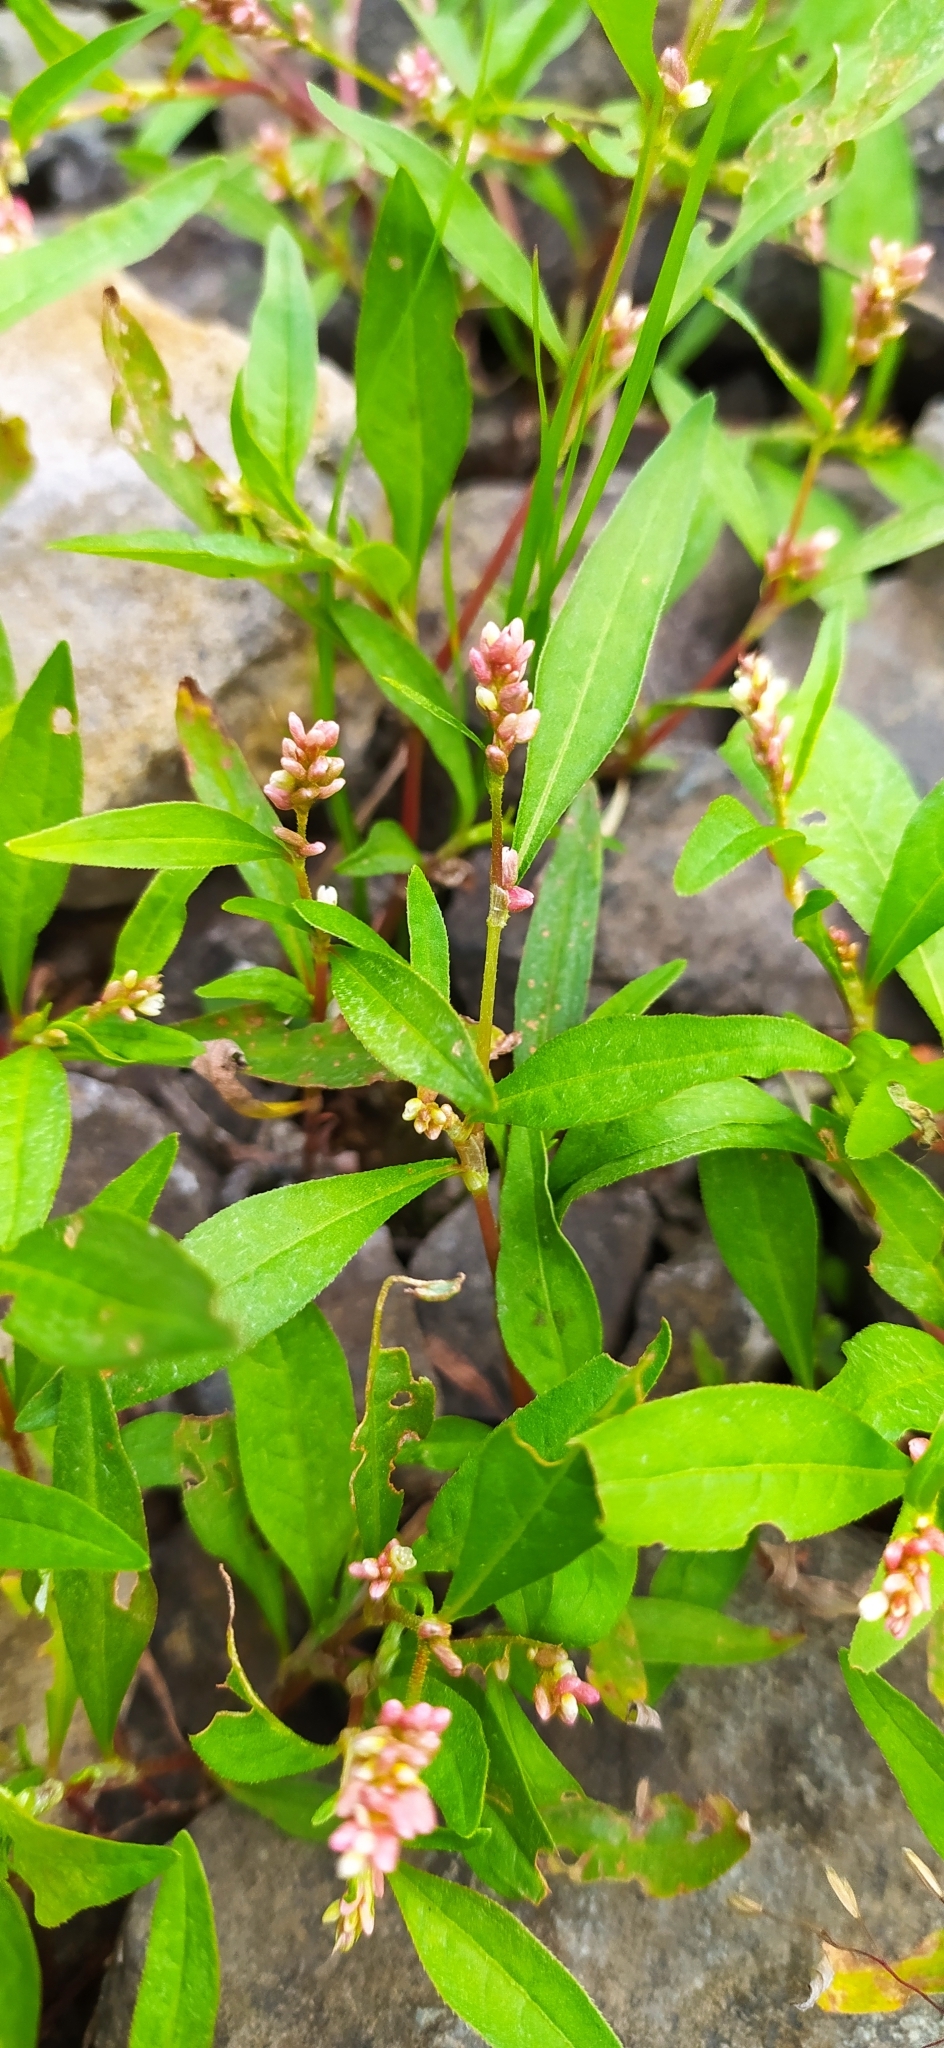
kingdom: Plantae
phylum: Tracheophyta
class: Magnoliopsida
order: Caryophyllales
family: Polygonaceae
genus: Persicaria
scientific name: Persicaria
